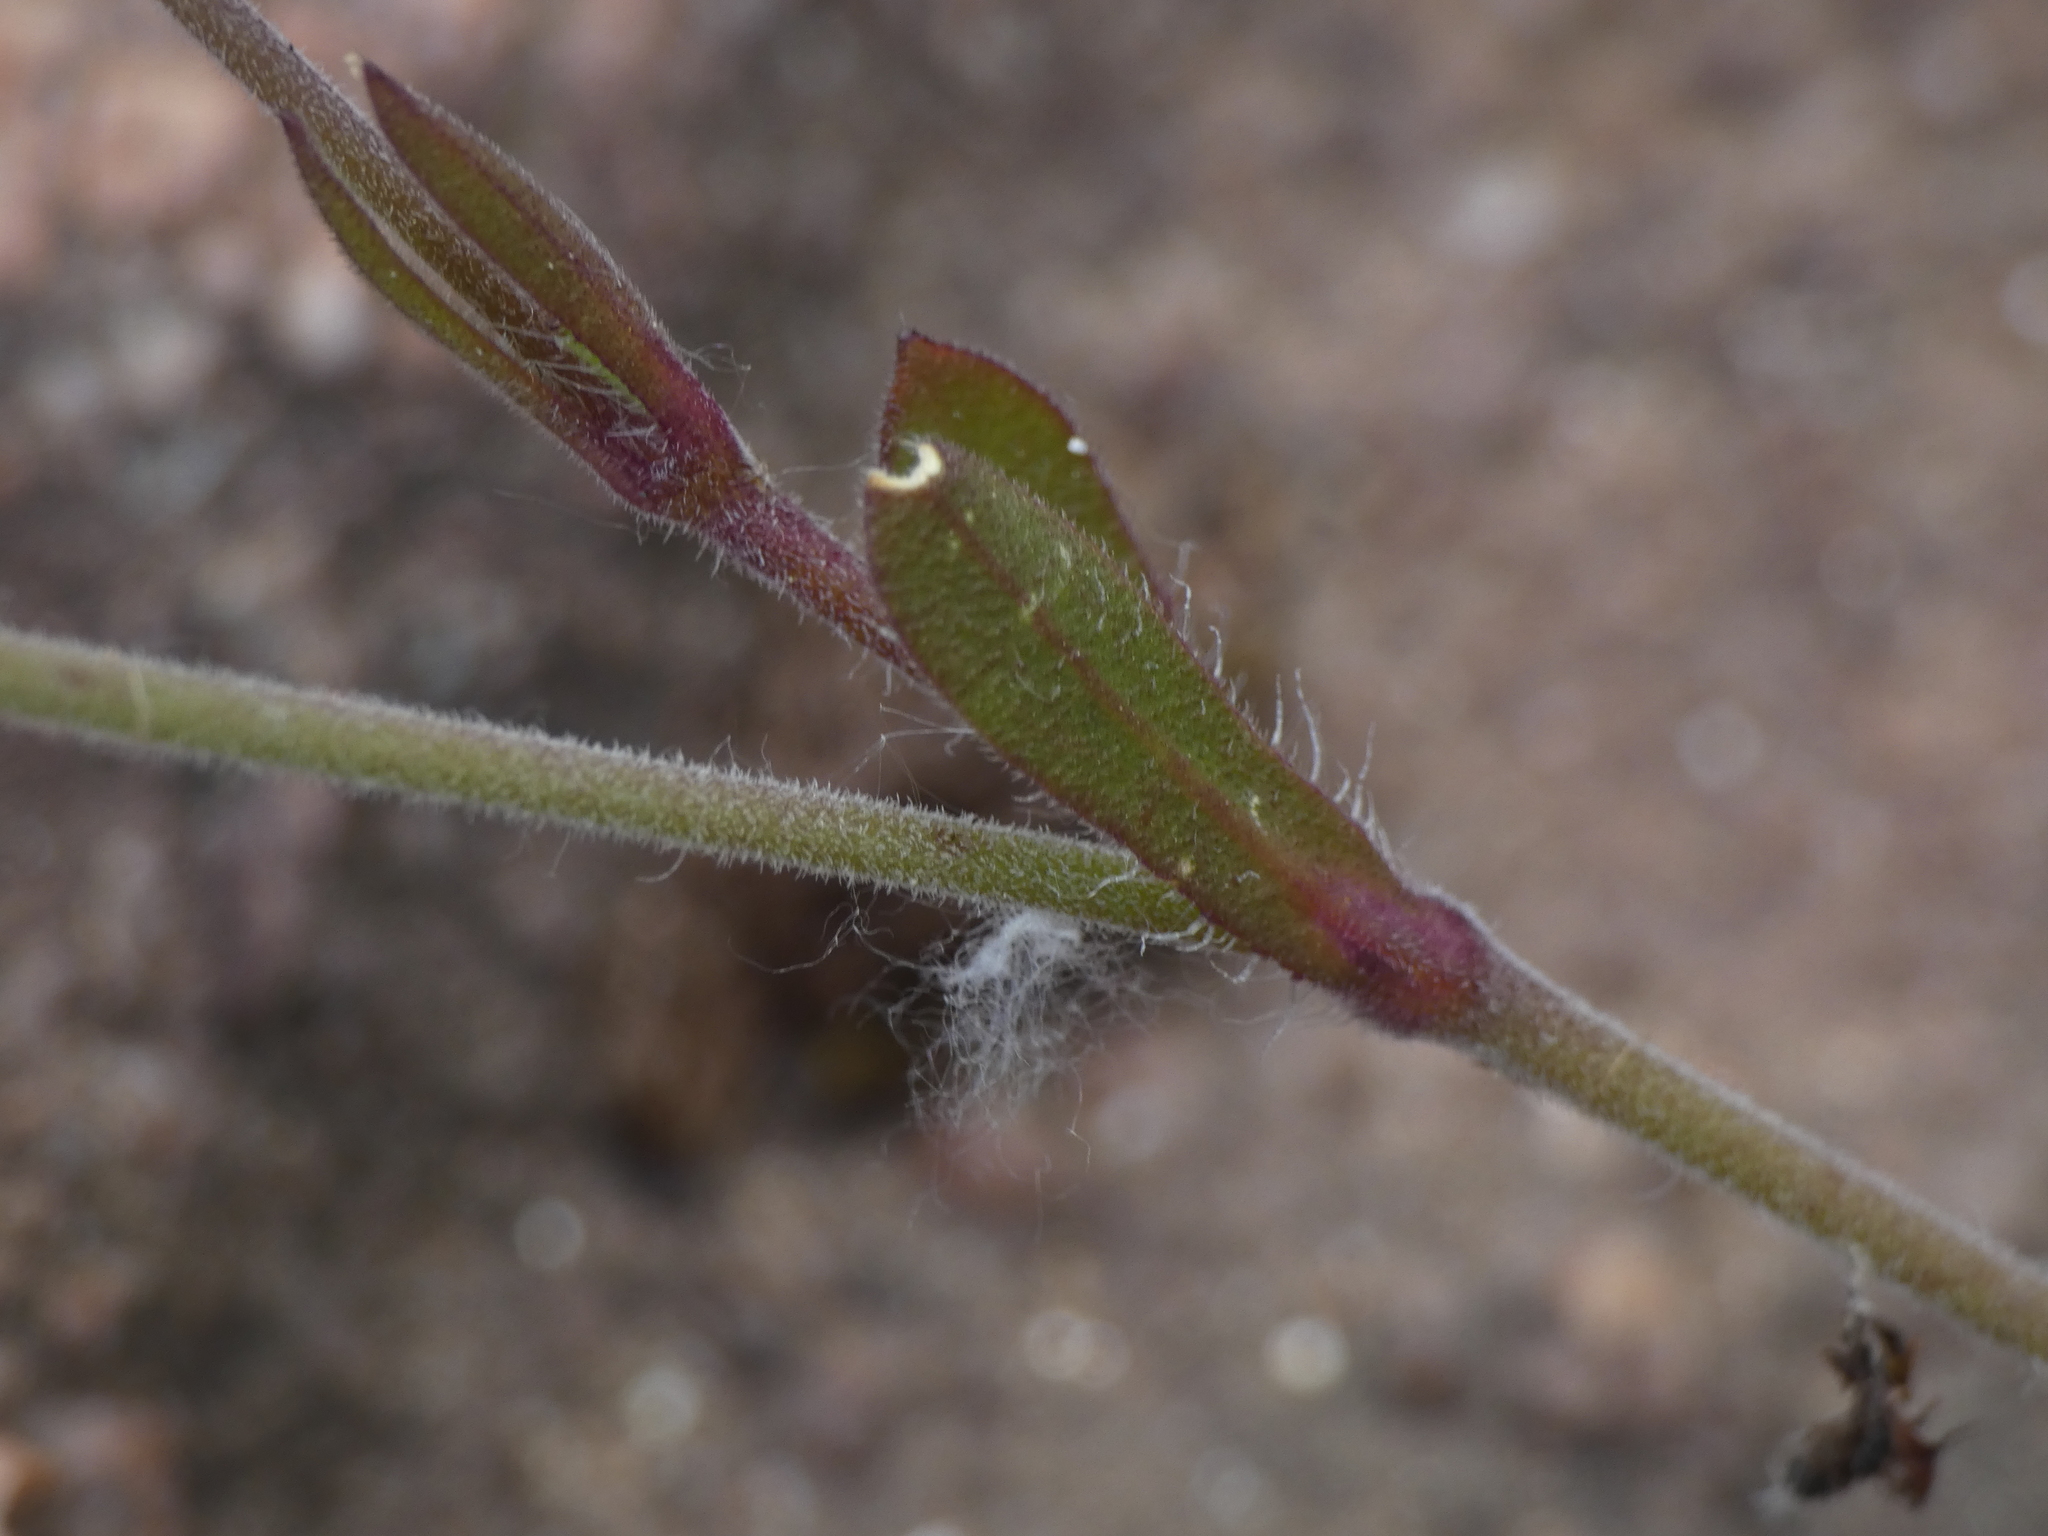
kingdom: Plantae
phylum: Tracheophyta
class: Magnoliopsida
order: Caryophyllales
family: Caryophyllaceae
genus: Silene
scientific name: Silene gallica
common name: Small-flowered catchfly
